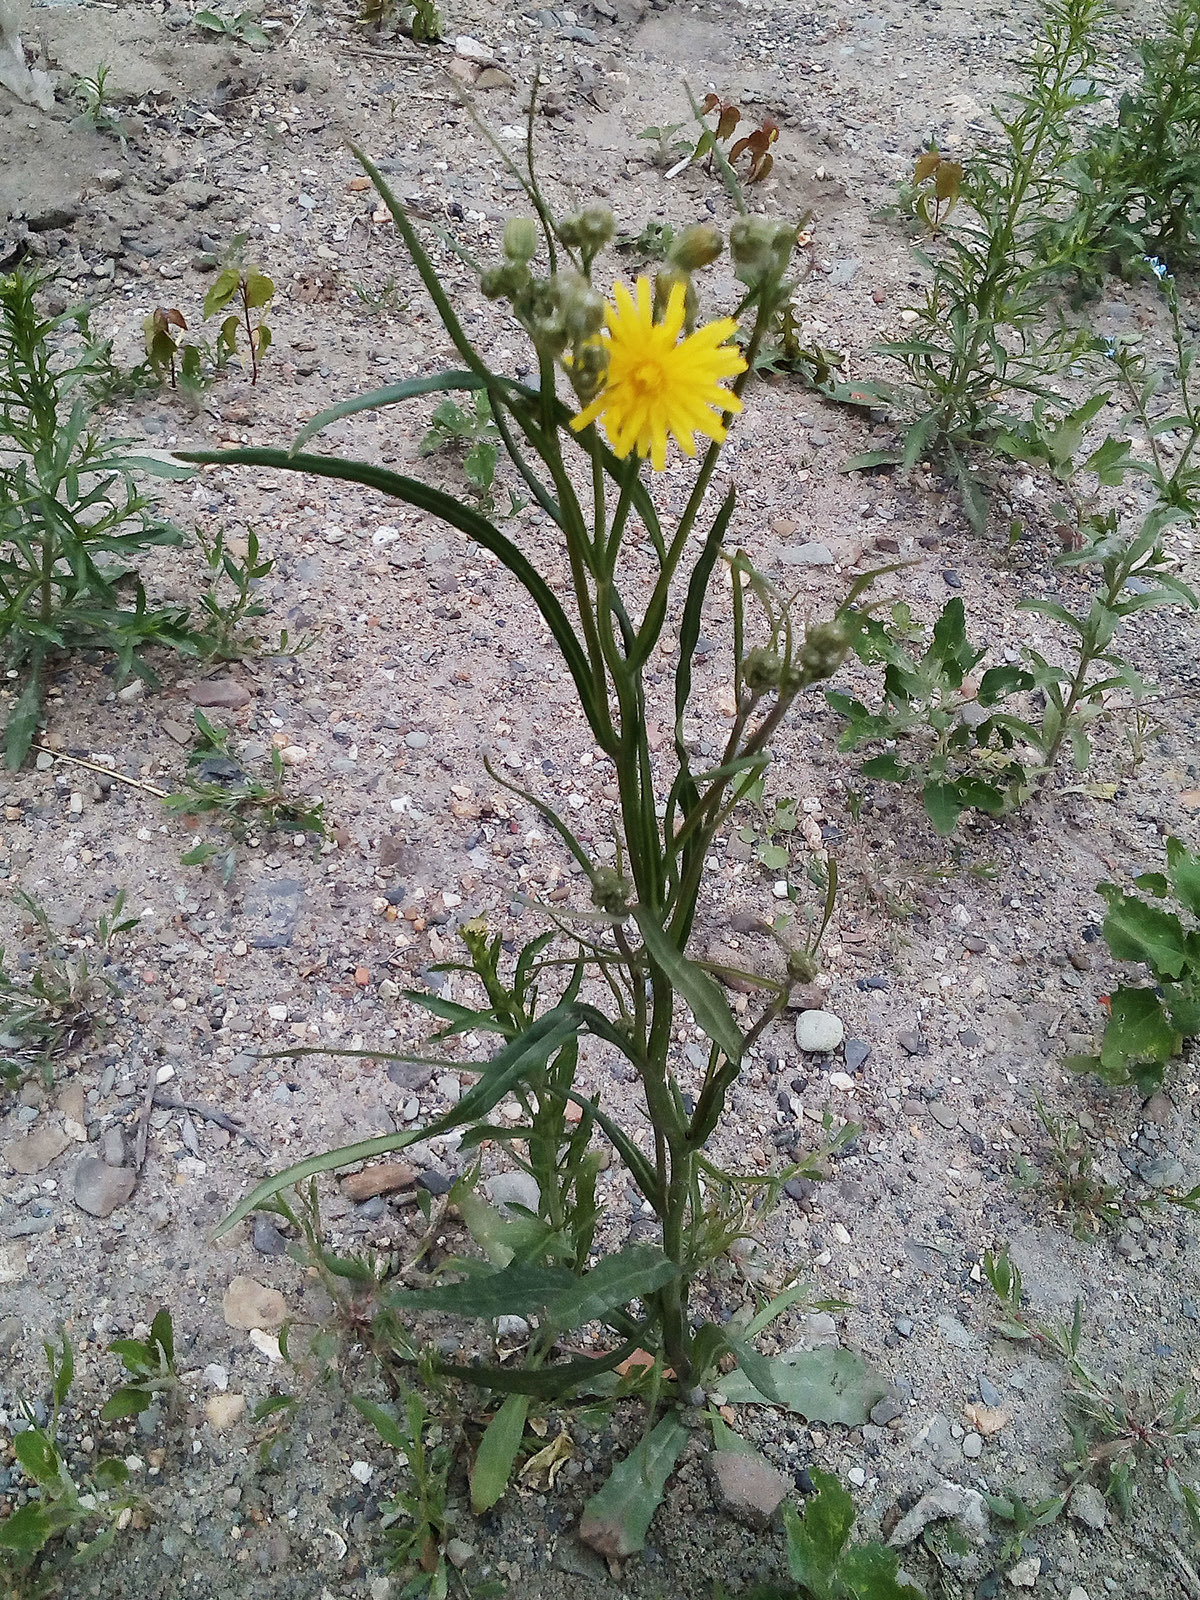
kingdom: Plantae
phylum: Tracheophyta
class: Magnoliopsida
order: Asterales
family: Asteraceae
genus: Crepis
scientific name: Crepis tectorum
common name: Narrow-leaved hawk's-beard
